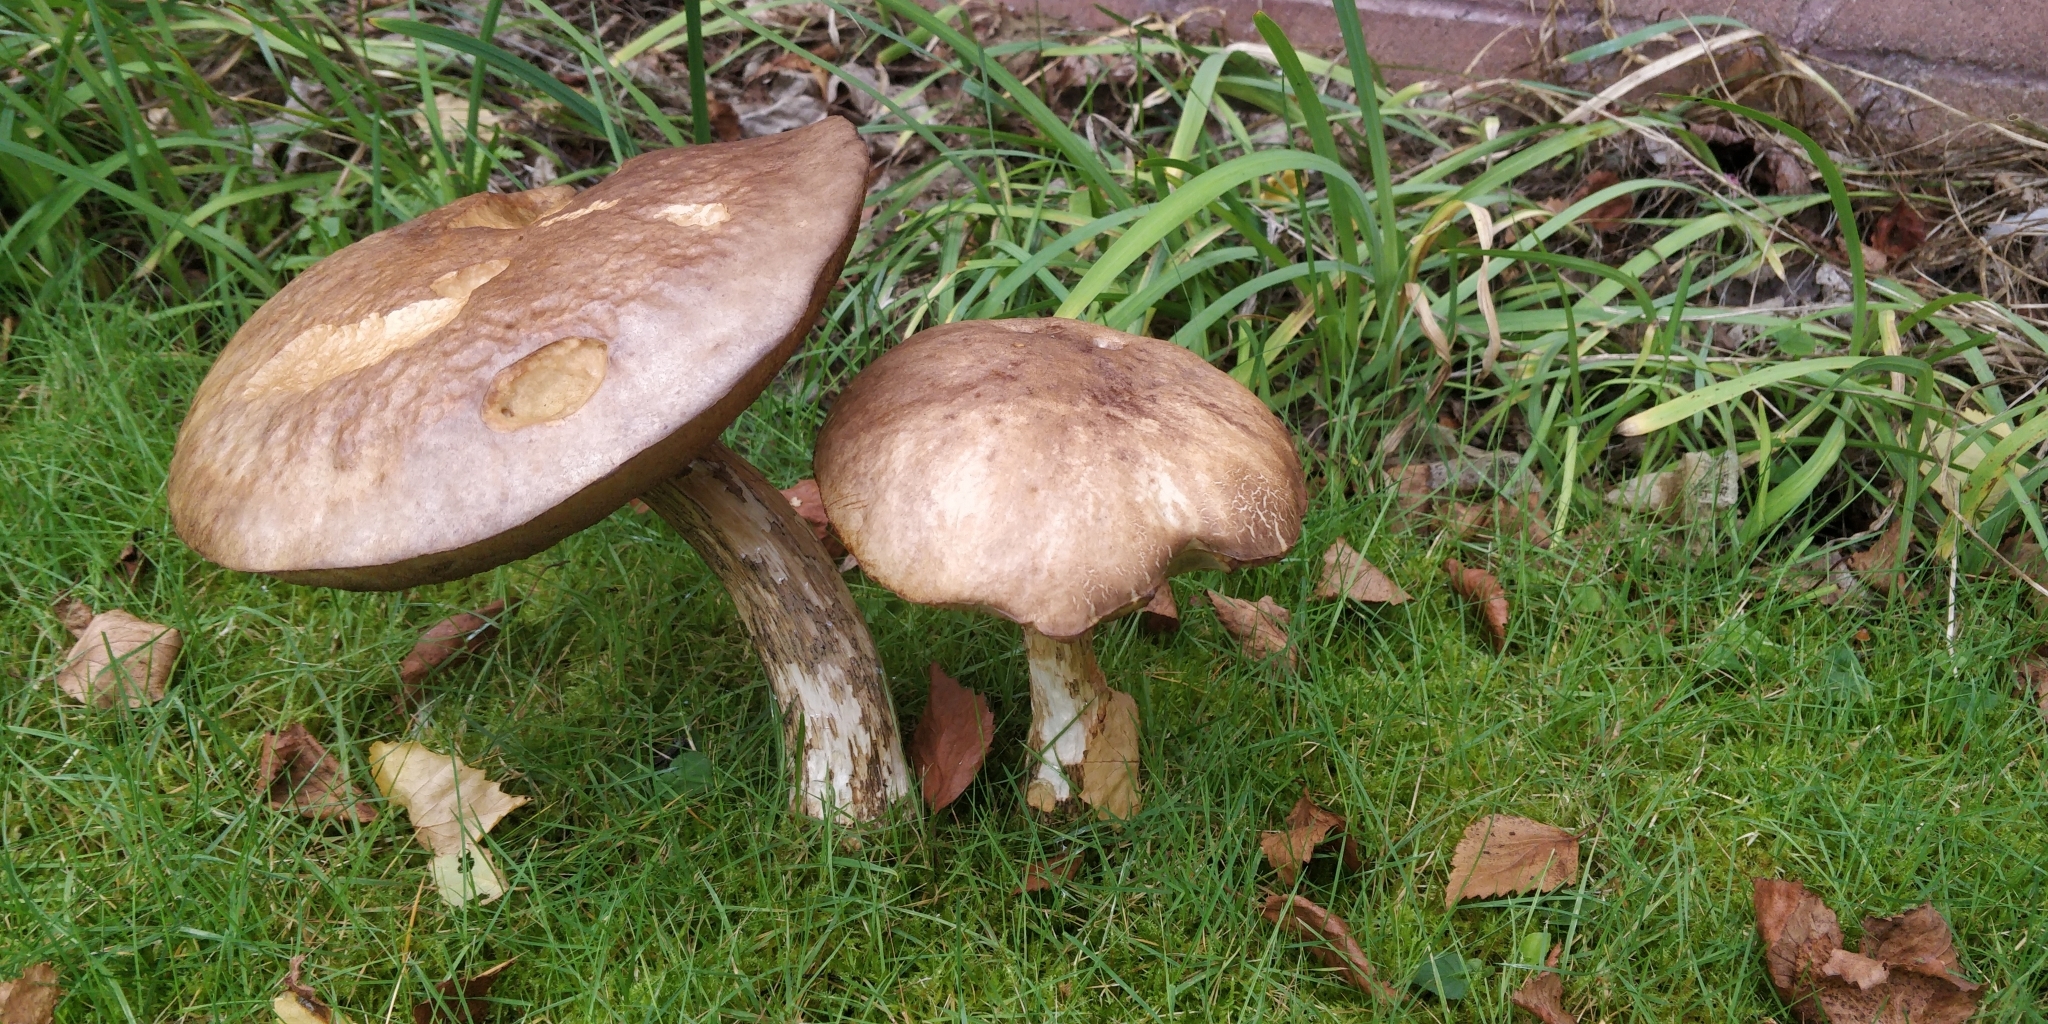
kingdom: Fungi
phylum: Basidiomycota
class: Agaricomycetes
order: Boletales
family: Boletaceae
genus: Leccinum
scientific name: Leccinum scabrum
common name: Blushing bolete
